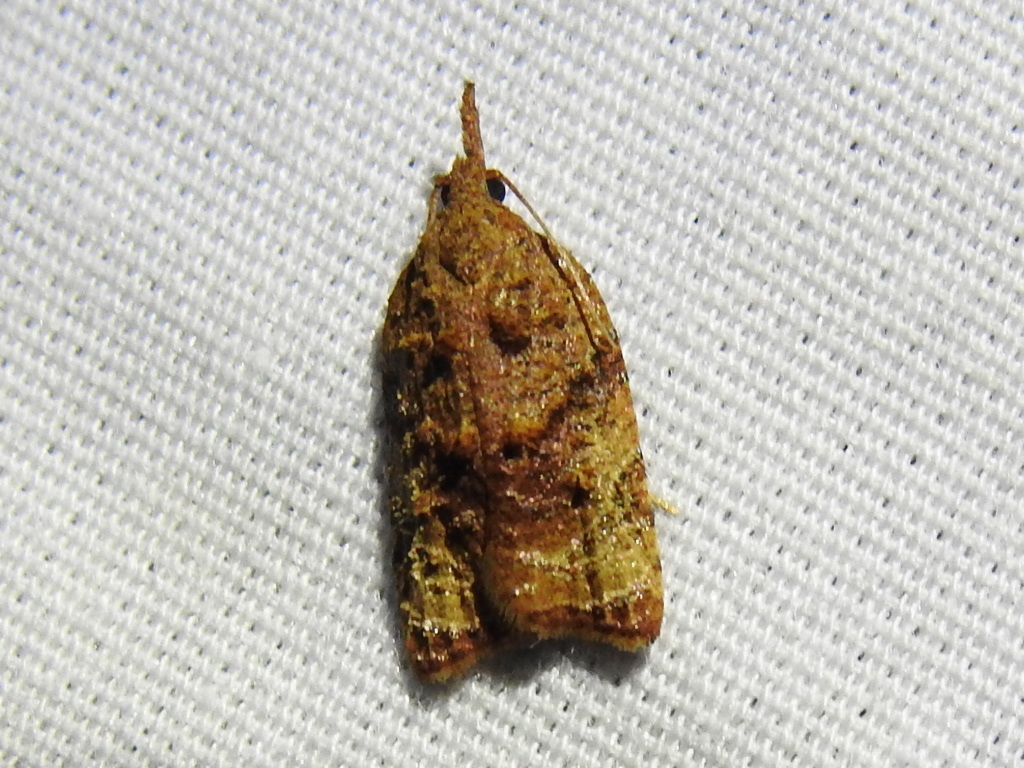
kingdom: Animalia
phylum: Arthropoda
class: Insecta
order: Lepidoptera
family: Tortricidae
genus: Platynota
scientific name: Platynota flavedana
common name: Black-shaded platynota moth
